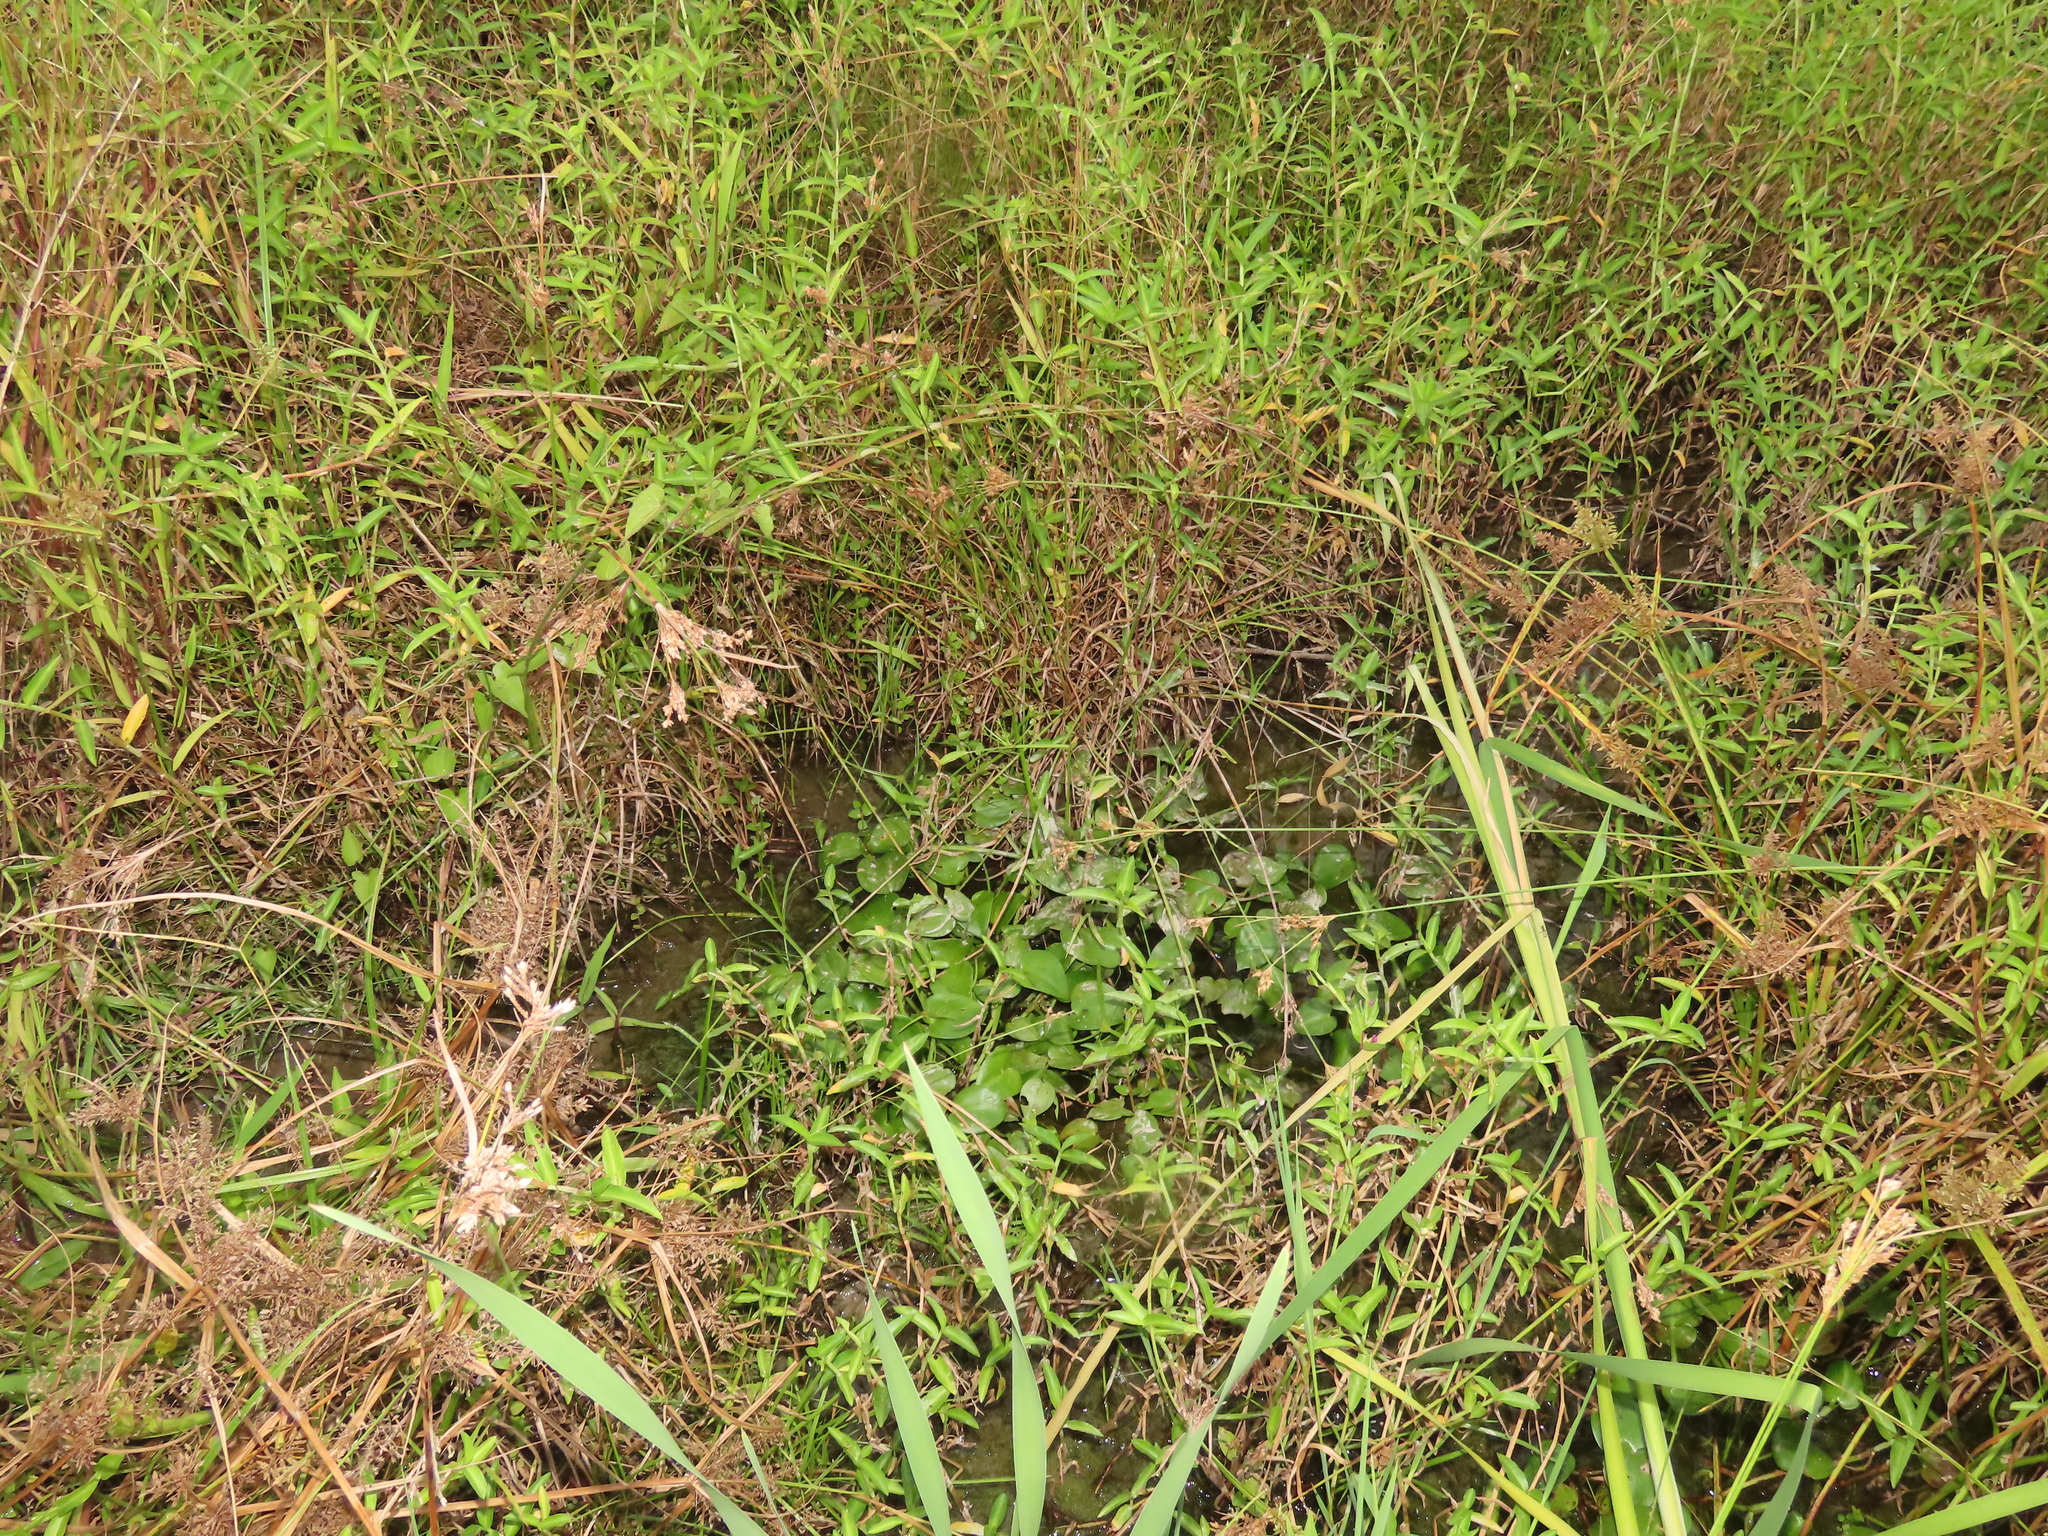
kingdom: Plantae
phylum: Tracheophyta
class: Liliopsida
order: Commelinales
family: Pontederiaceae
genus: Pontederia
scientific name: Pontederia vaginalis
